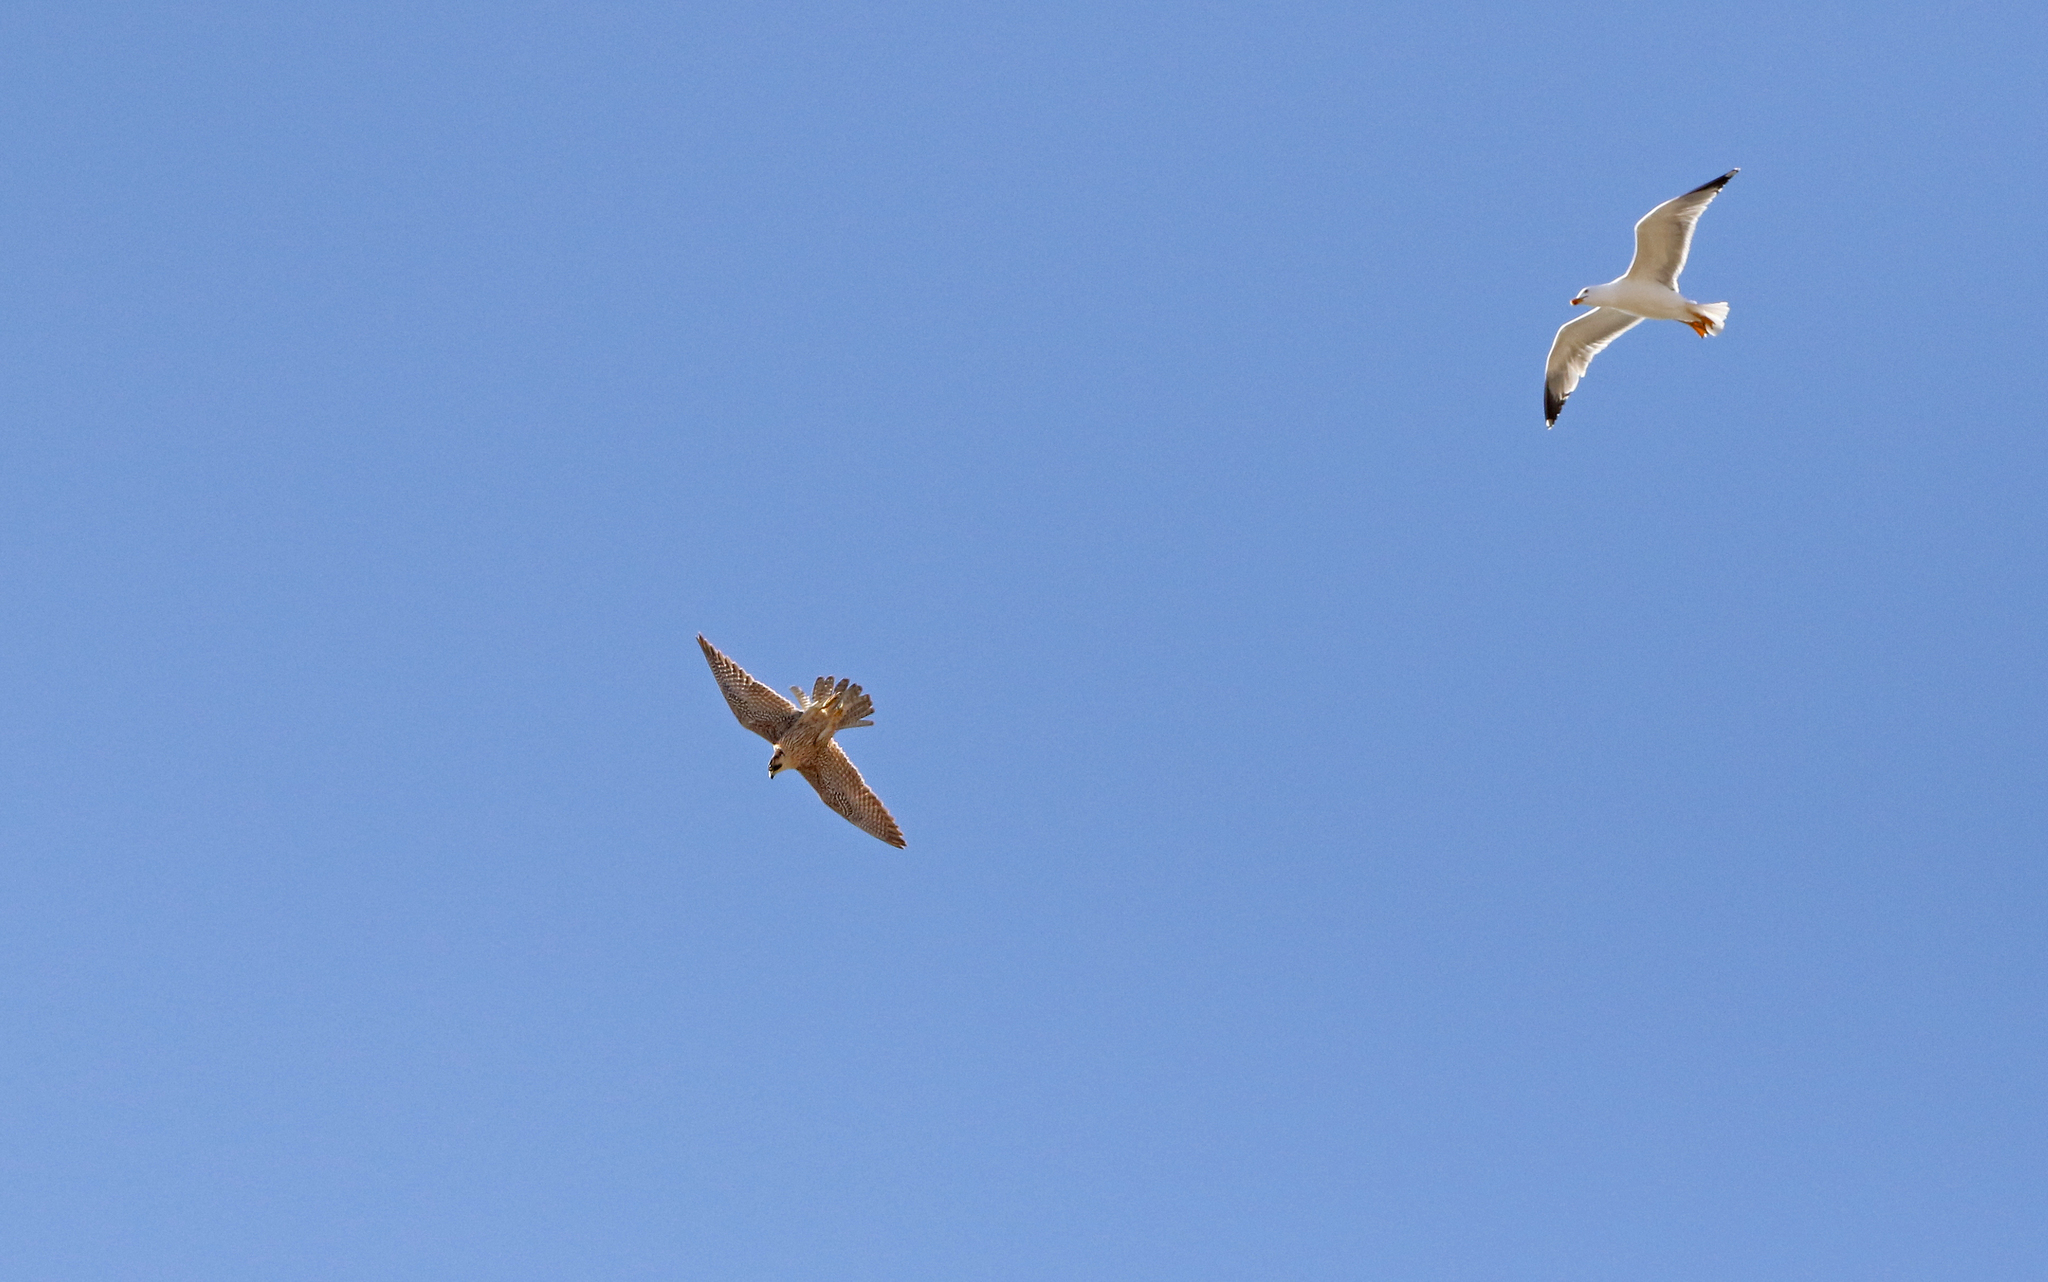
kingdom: Animalia
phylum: Chordata
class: Aves
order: Falconiformes
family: Falconidae
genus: Falco
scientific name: Falco peregrinus
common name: Peregrine falcon
